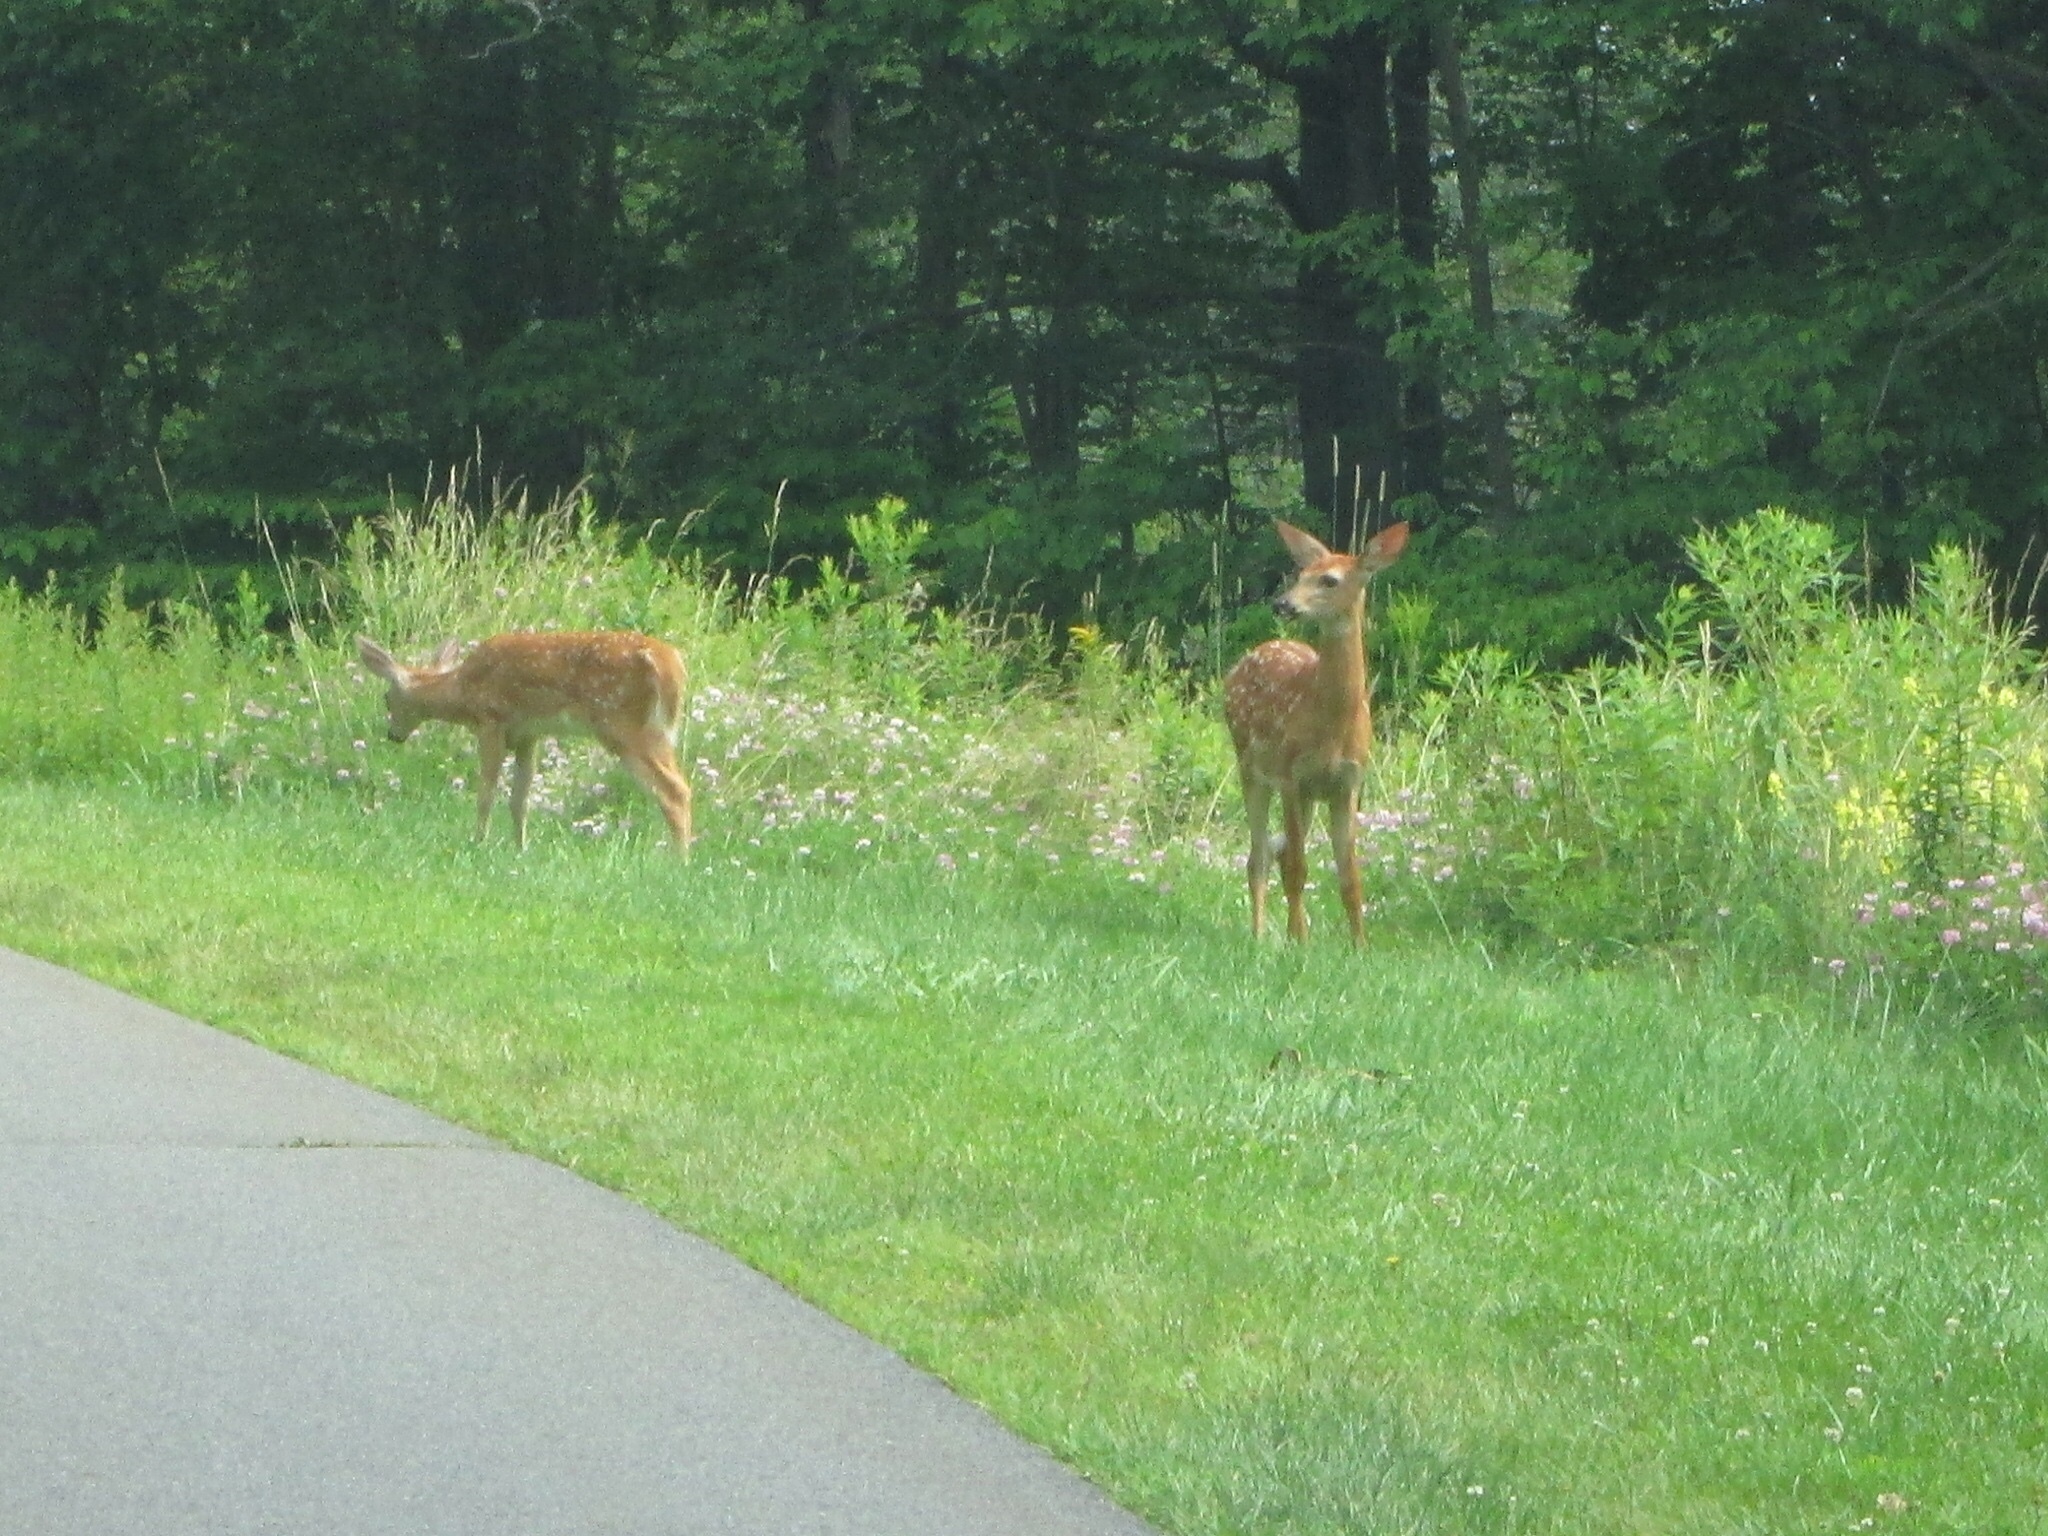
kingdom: Animalia
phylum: Chordata
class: Mammalia
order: Artiodactyla
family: Cervidae
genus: Odocoileus
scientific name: Odocoileus virginianus
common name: White-tailed deer
